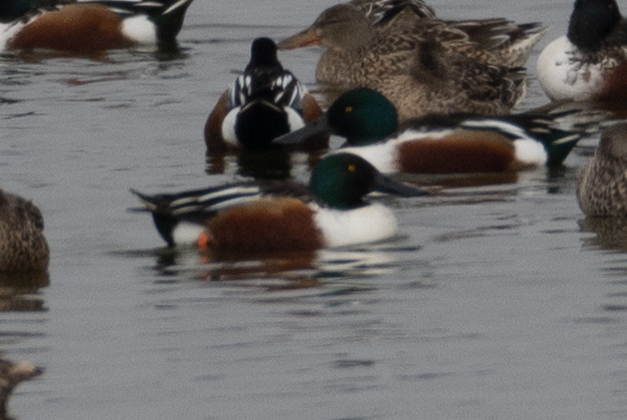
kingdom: Animalia
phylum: Chordata
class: Aves
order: Anseriformes
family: Anatidae
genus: Spatula
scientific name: Spatula clypeata
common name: Northern shoveler
